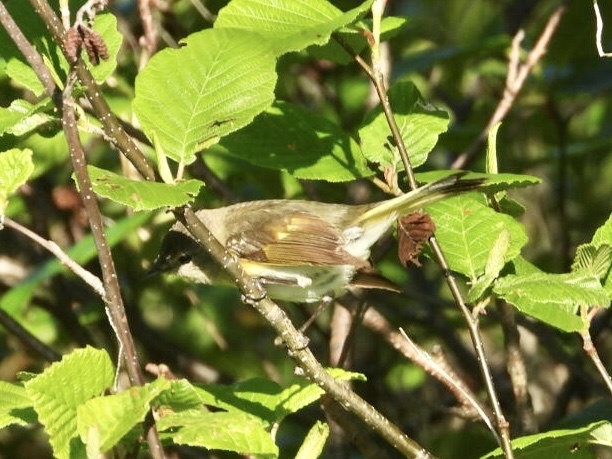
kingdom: Animalia
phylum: Chordata
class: Aves
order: Passeriformes
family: Parulidae
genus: Setophaga
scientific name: Setophaga ruticilla
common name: American redstart
